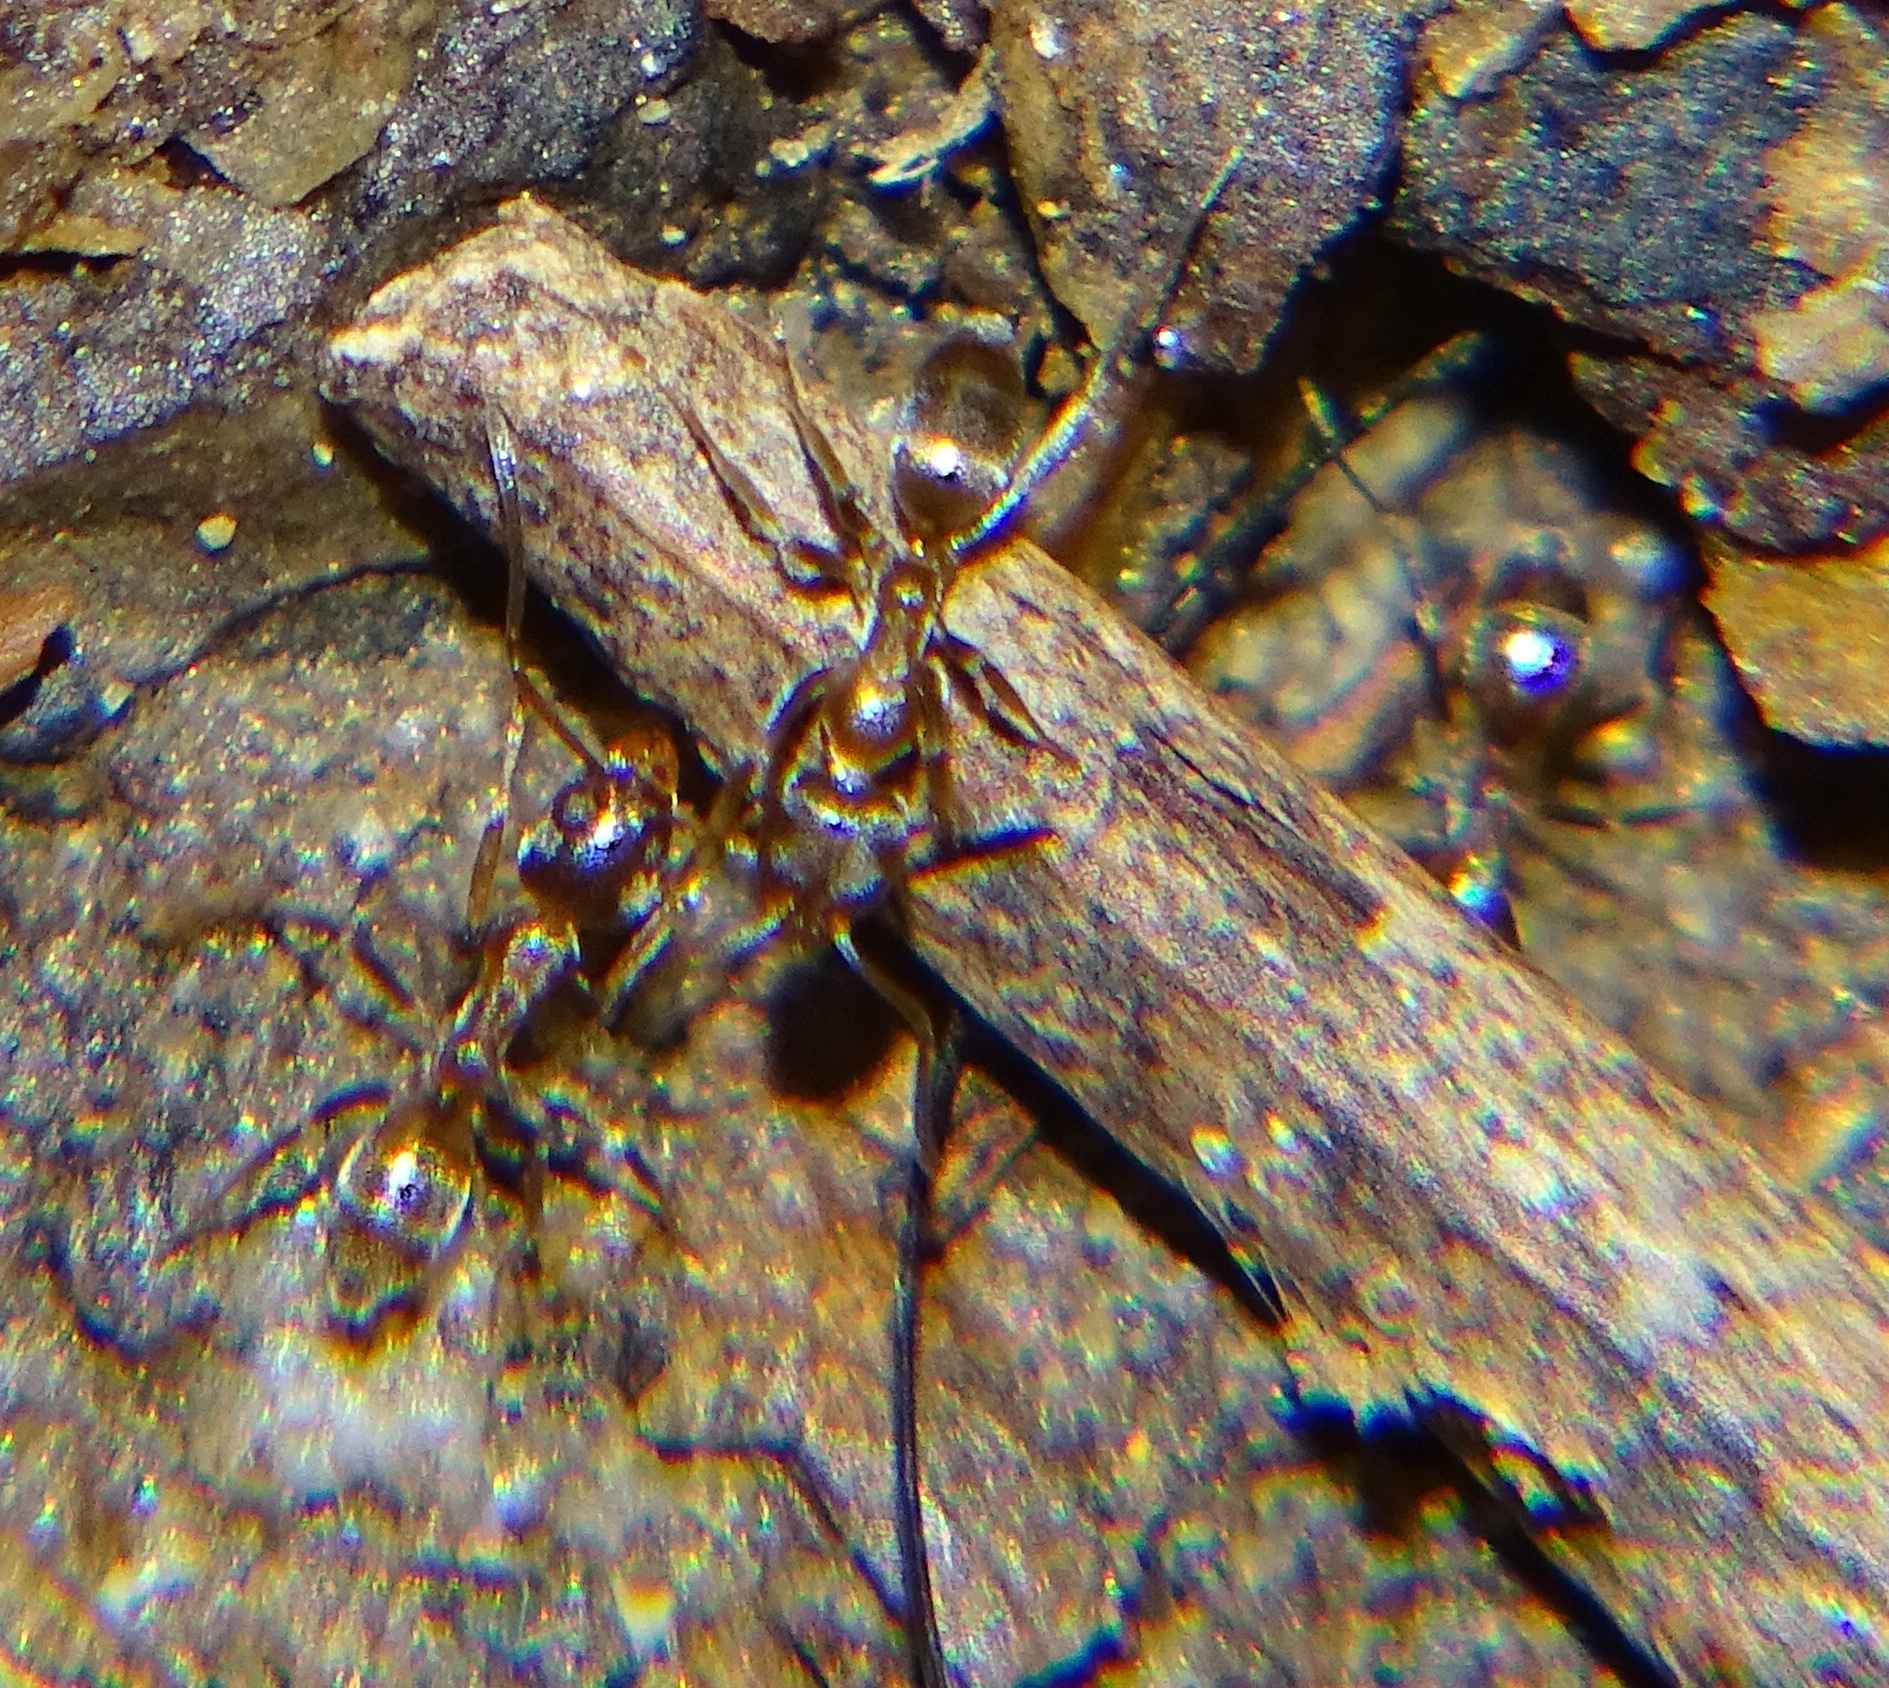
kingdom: Animalia
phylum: Arthropoda
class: Insecta
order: Hymenoptera
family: Formicidae
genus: Linepithema
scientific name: Linepithema humile
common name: Argentine ant
